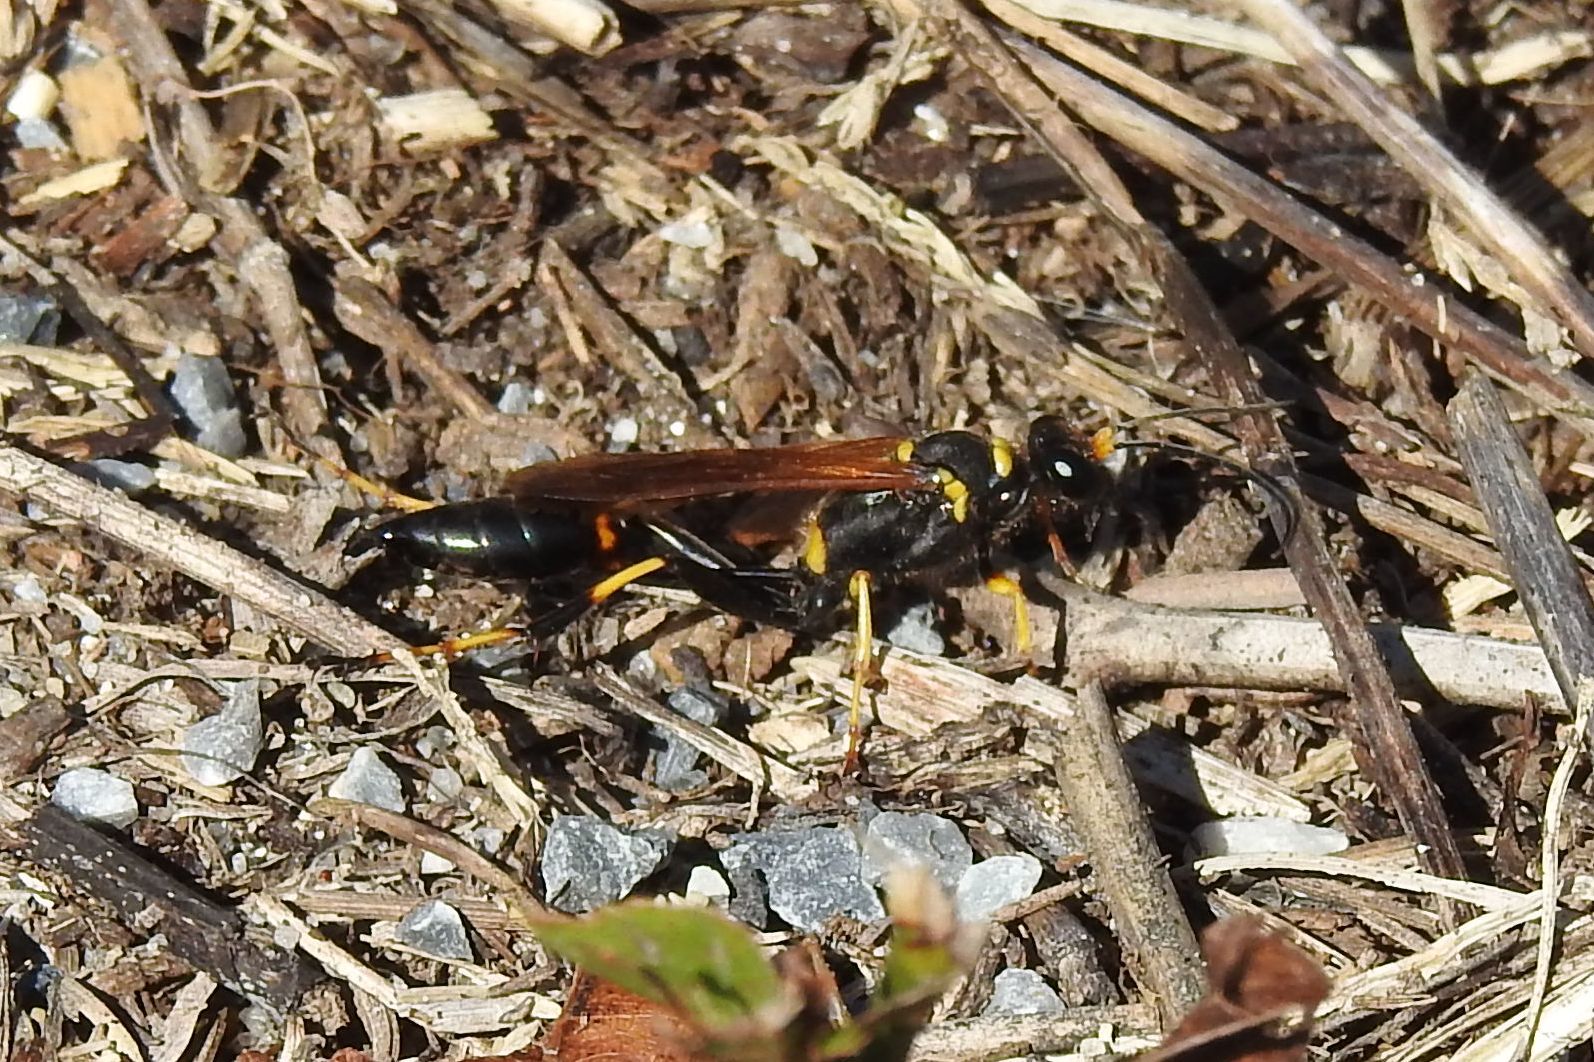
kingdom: Animalia
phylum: Arthropoda
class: Insecta
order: Hymenoptera
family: Sphecidae
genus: Sceliphron
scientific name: Sceliphron caementarium
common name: Mud dauber
